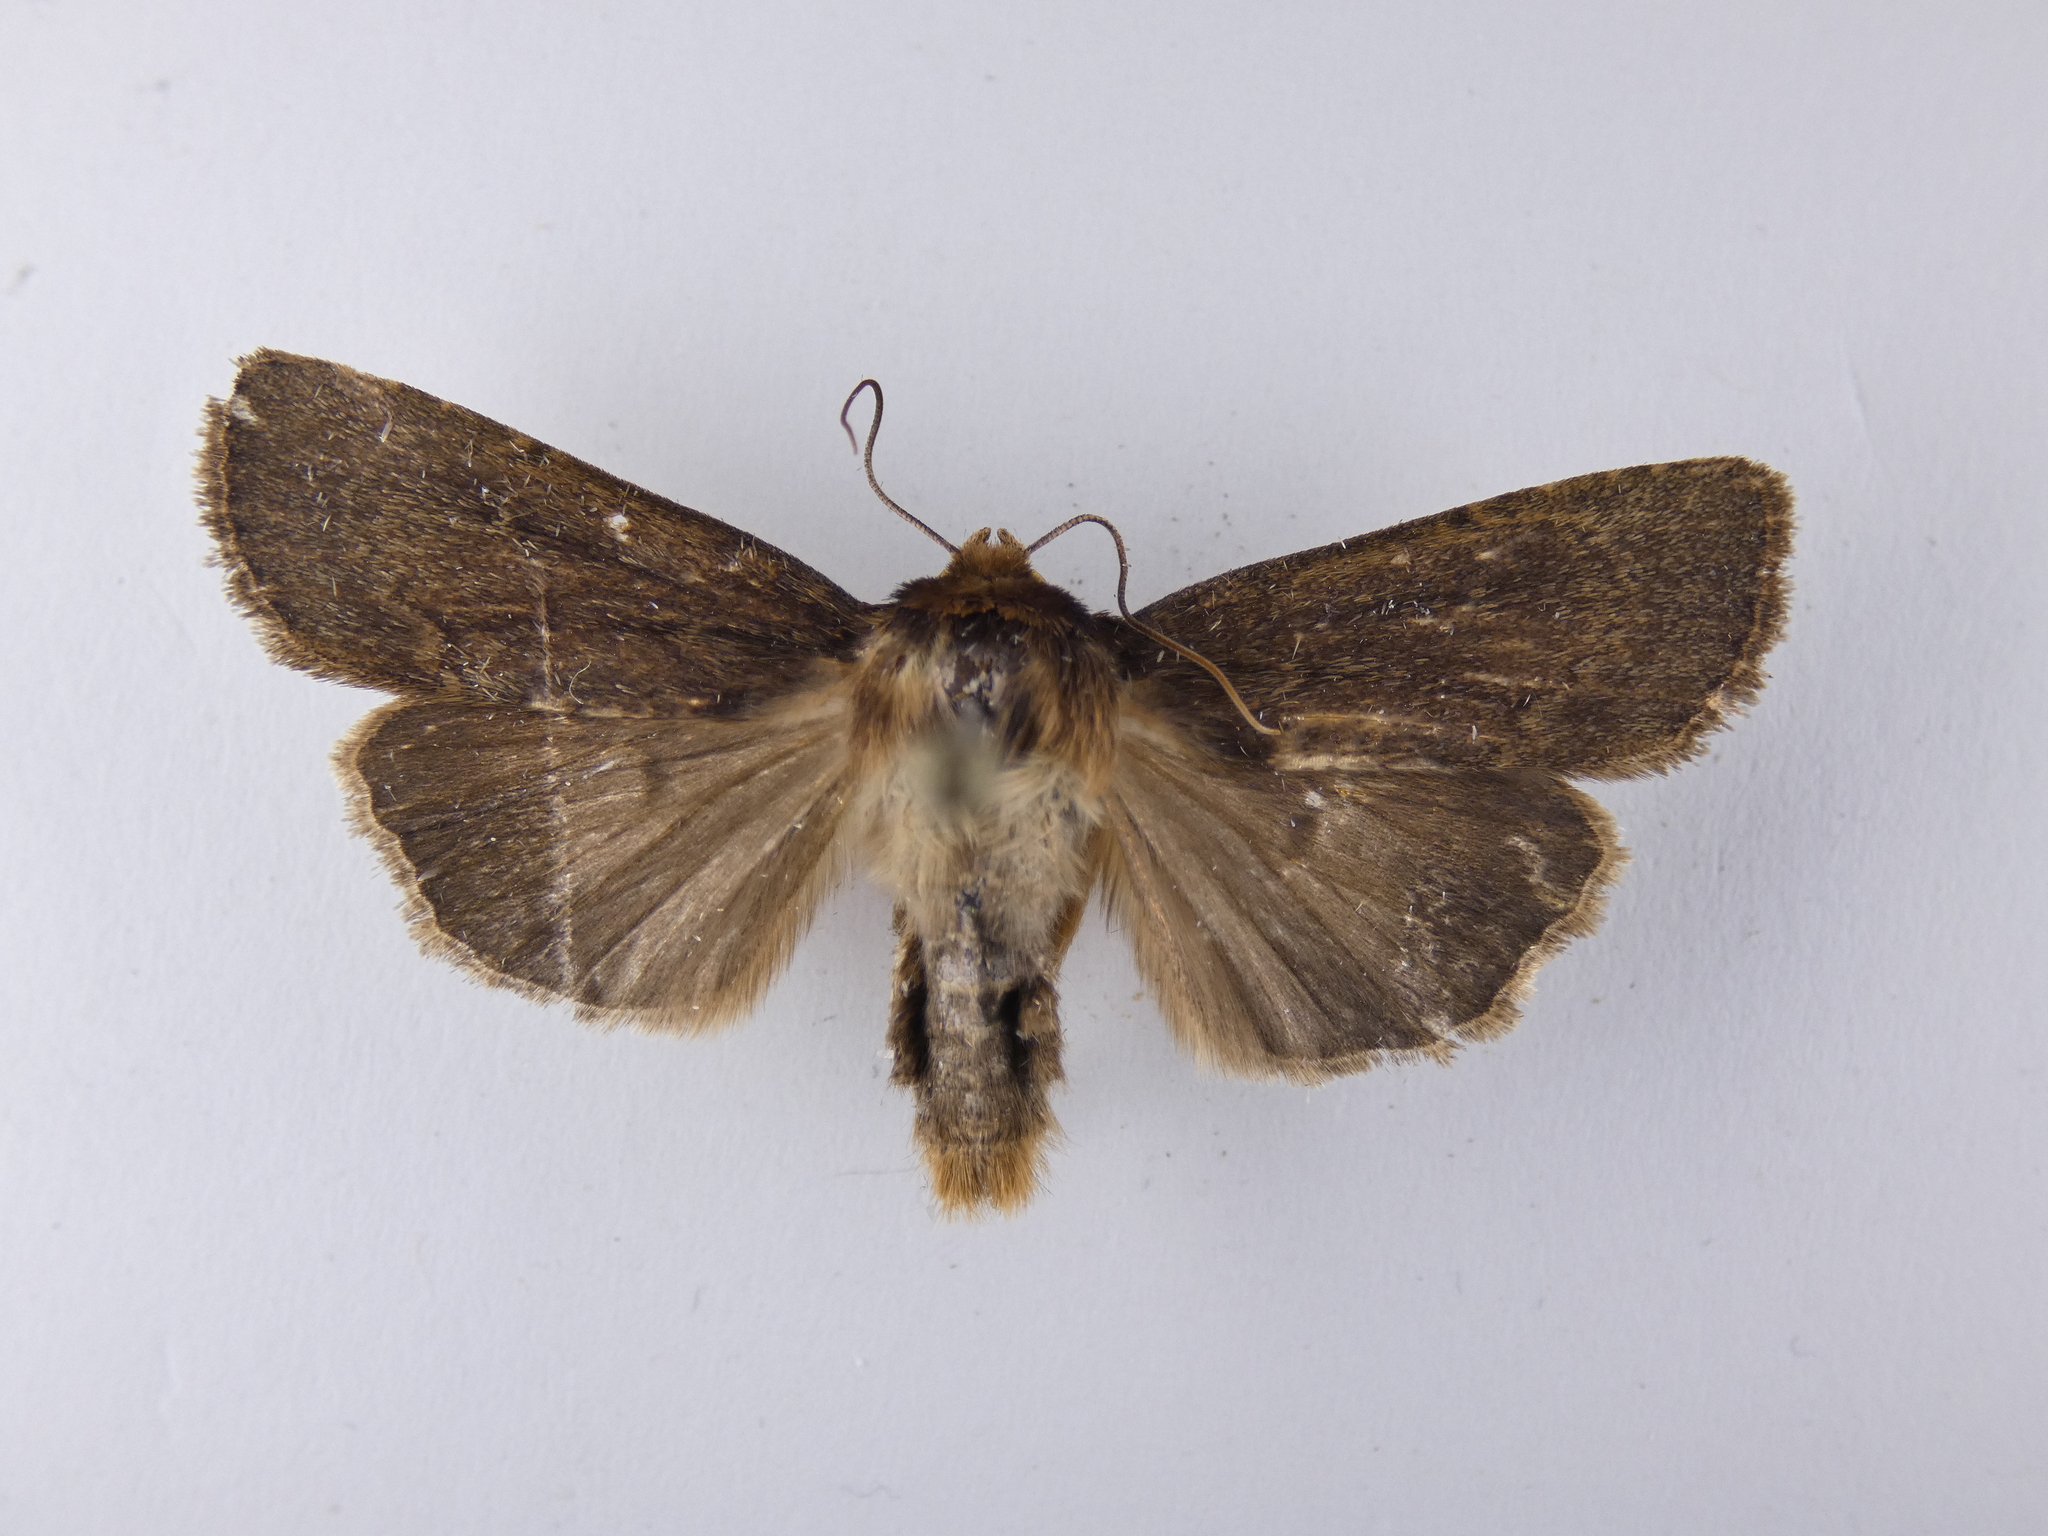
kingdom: Animalia
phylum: Arthropoda
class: Insecta
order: Lepidoptera
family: Noctuidae
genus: Bityla
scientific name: Bityla defigurata
